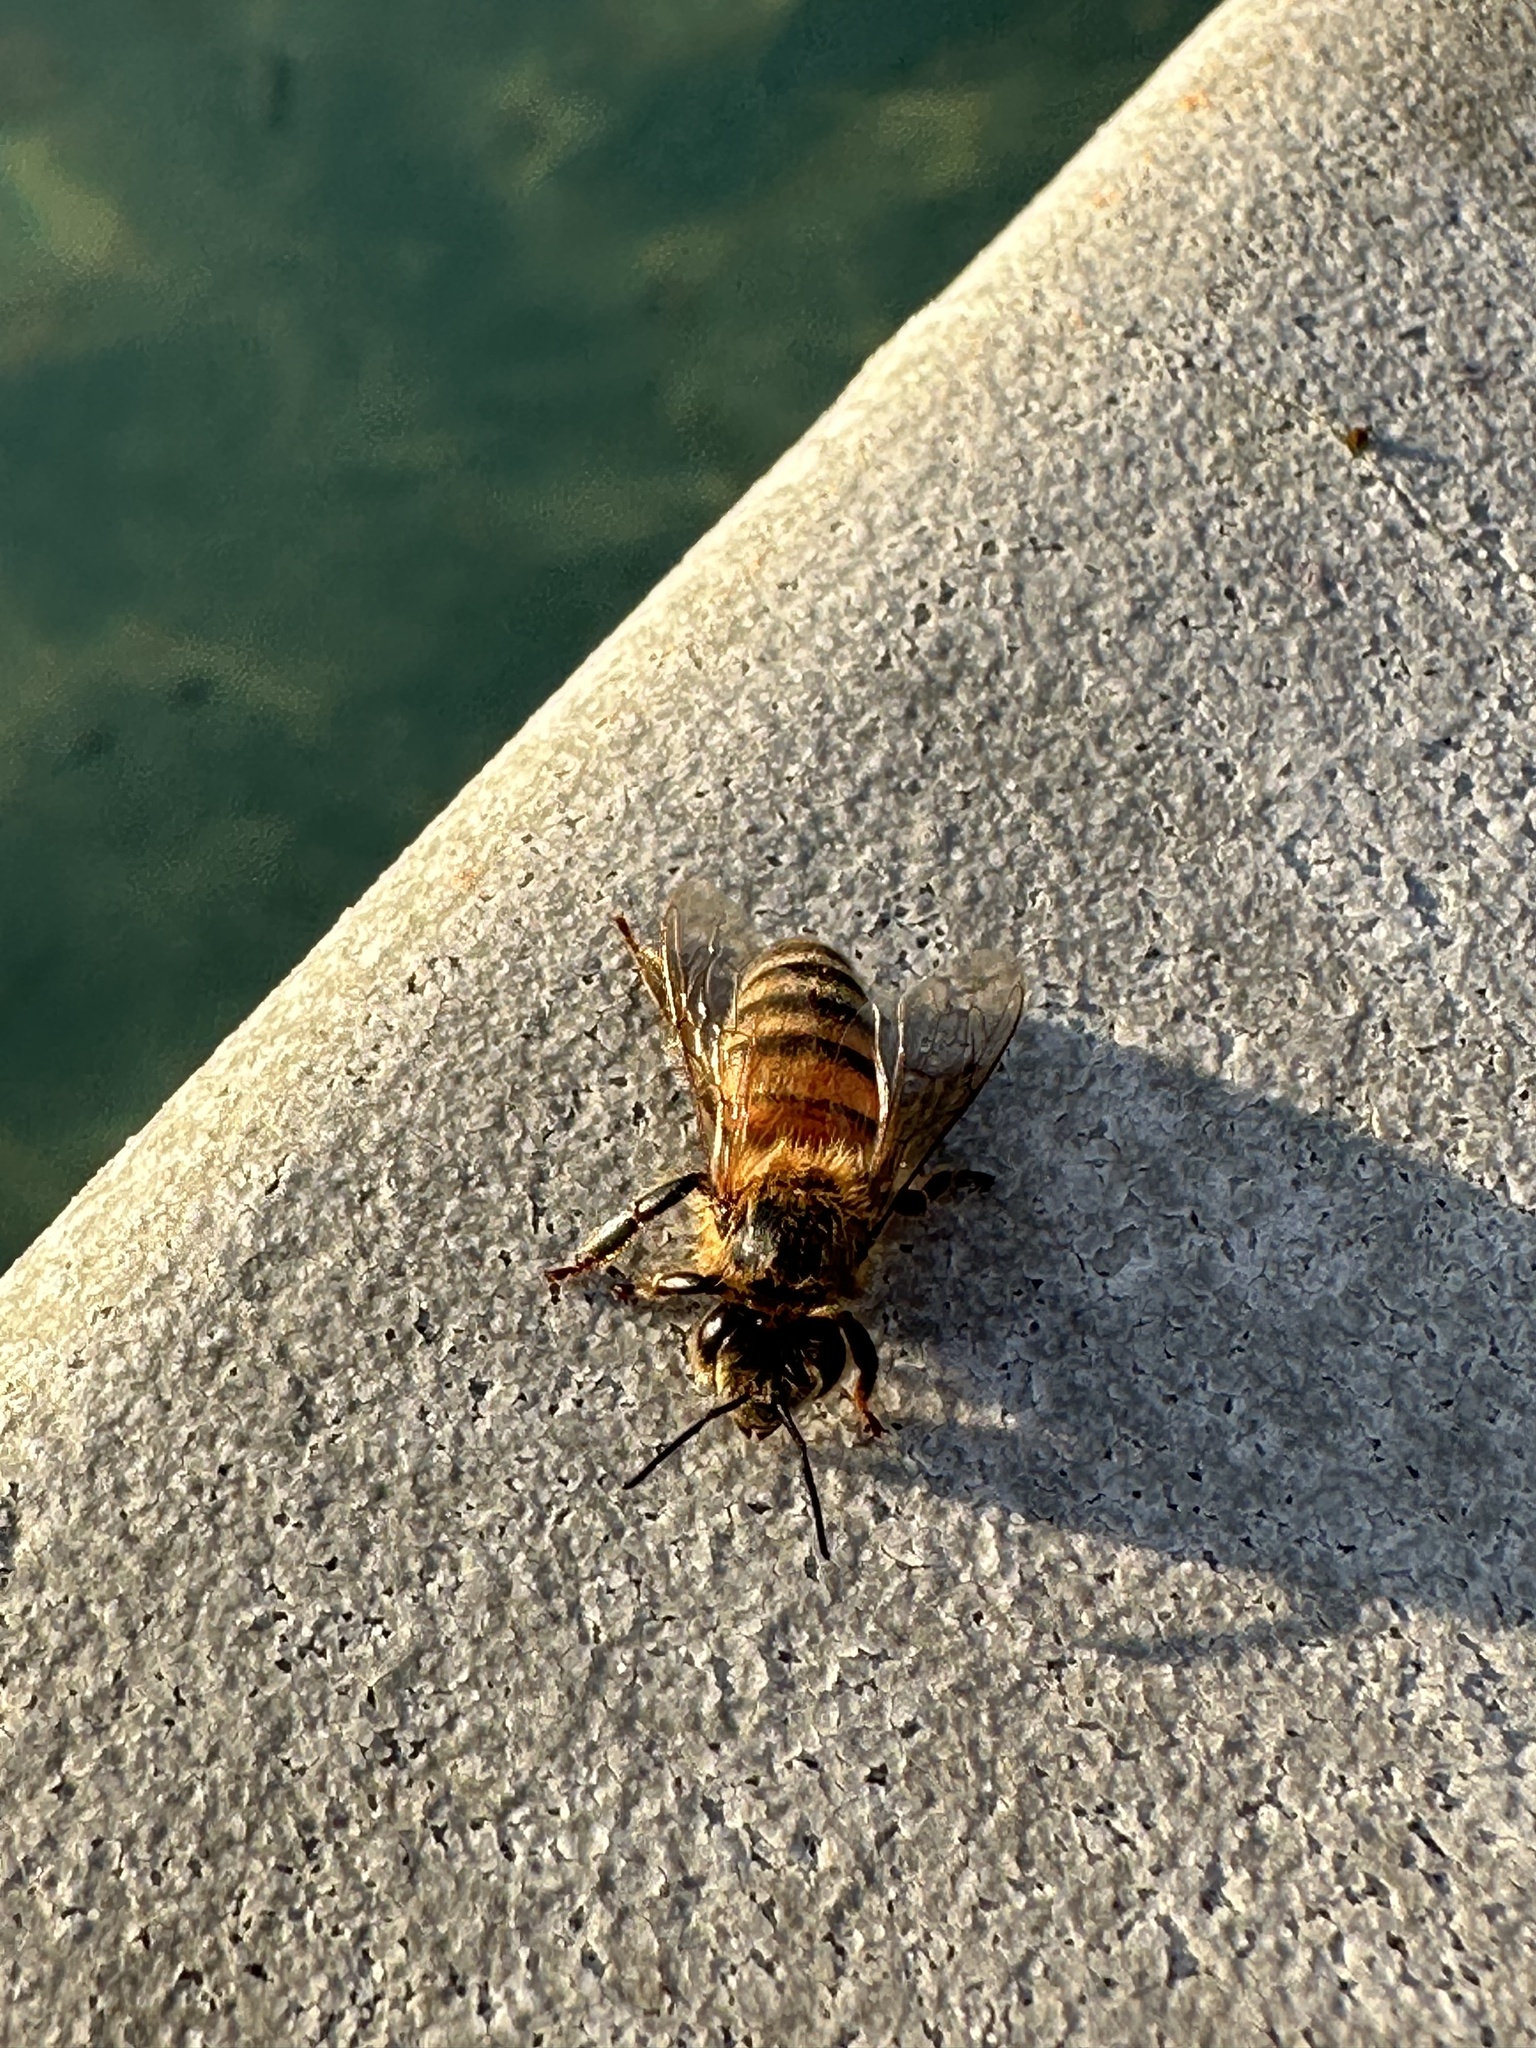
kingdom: Animalia
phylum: Arthropoda
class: Insecta
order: Hymenoptera
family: Apidae
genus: Apis
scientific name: Apis mellifera
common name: Honey bee
